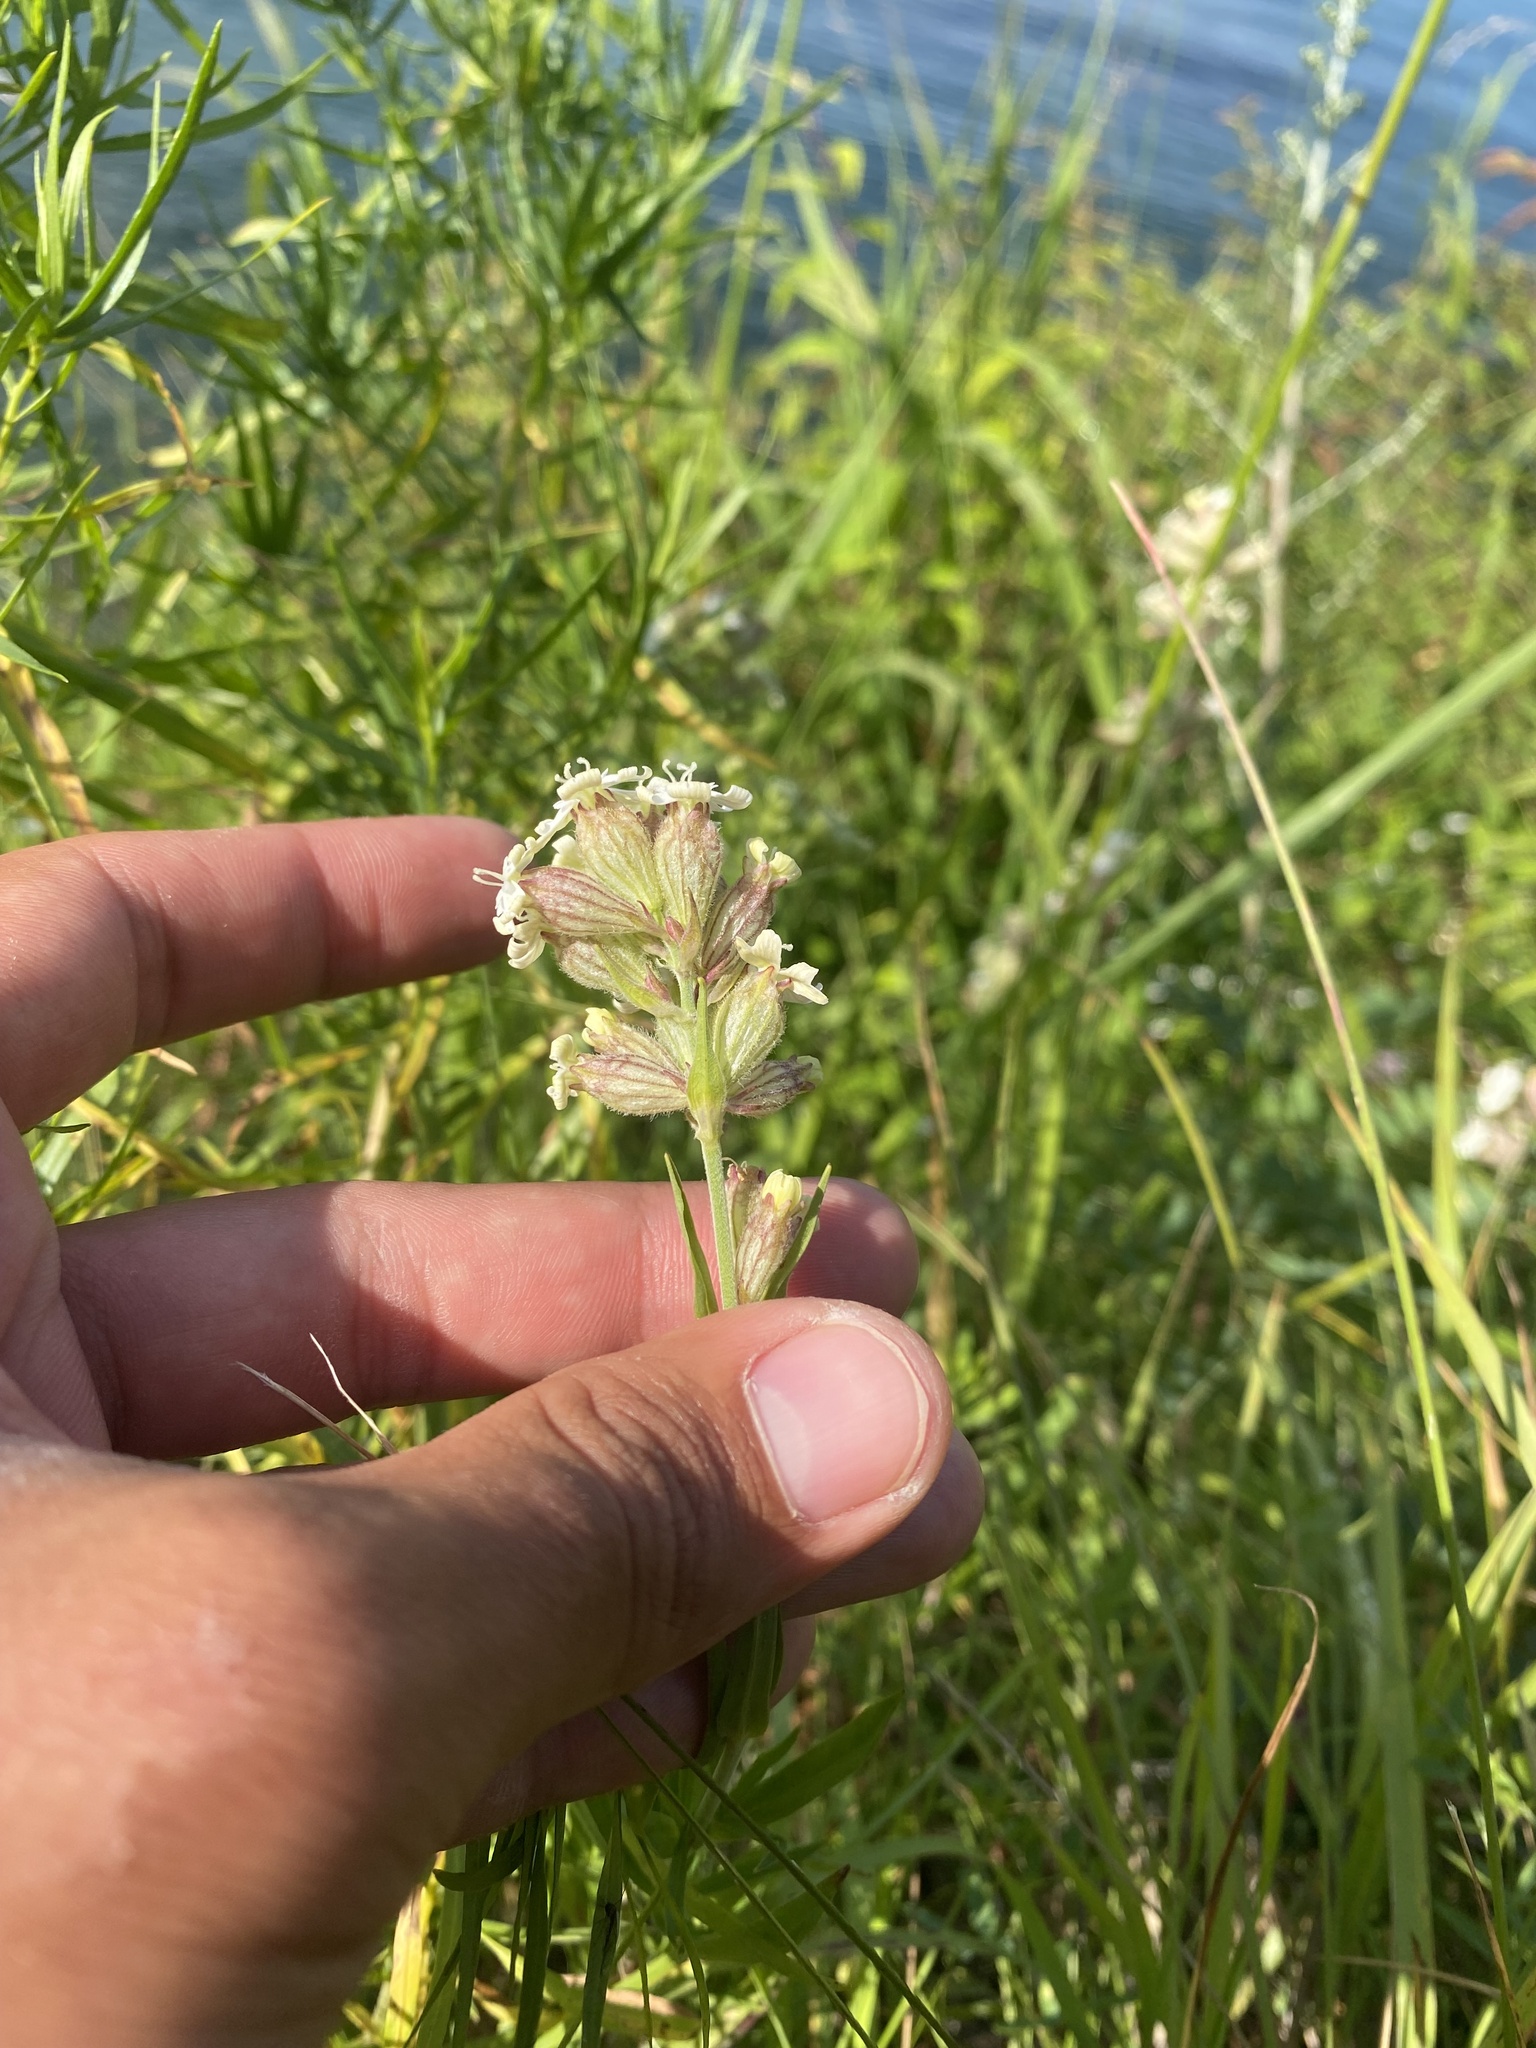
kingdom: Plantae
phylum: Tracheophyta
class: Magnoliopsida
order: Caryophyllales
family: Caryophyllaceae
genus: Silene
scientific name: Silene amoena
